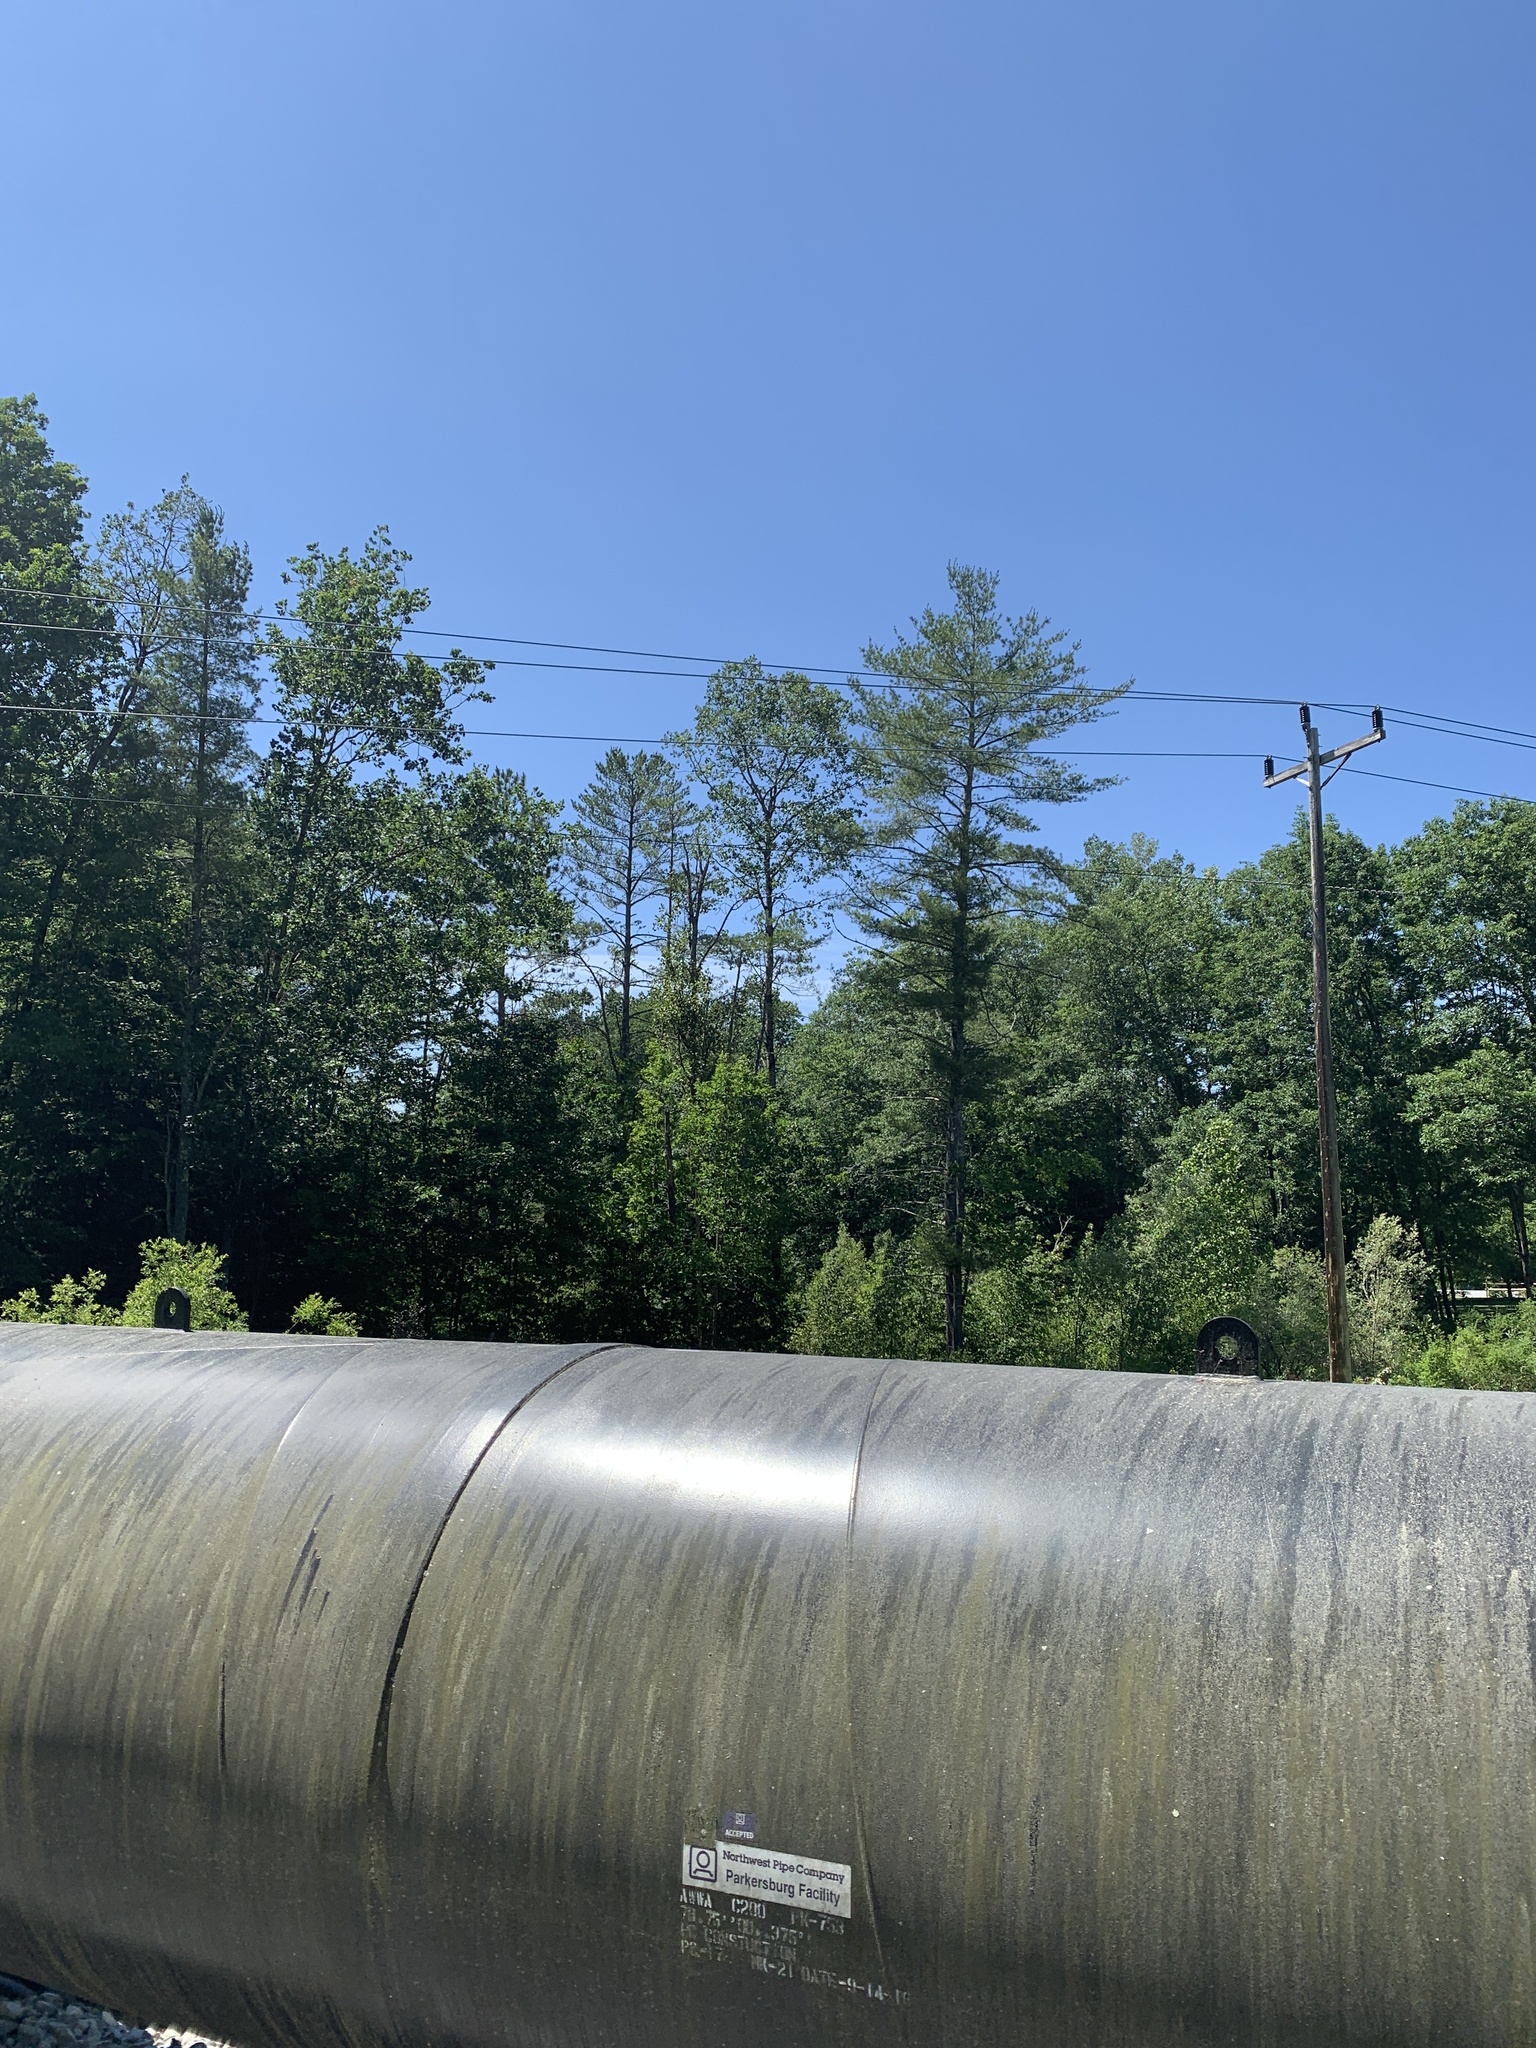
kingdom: Plantae
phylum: Tracheophyta
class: Pinopsida
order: Pinales
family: Pinaceae
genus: Pinus
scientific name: Pinus strobus
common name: Weymouth pine
